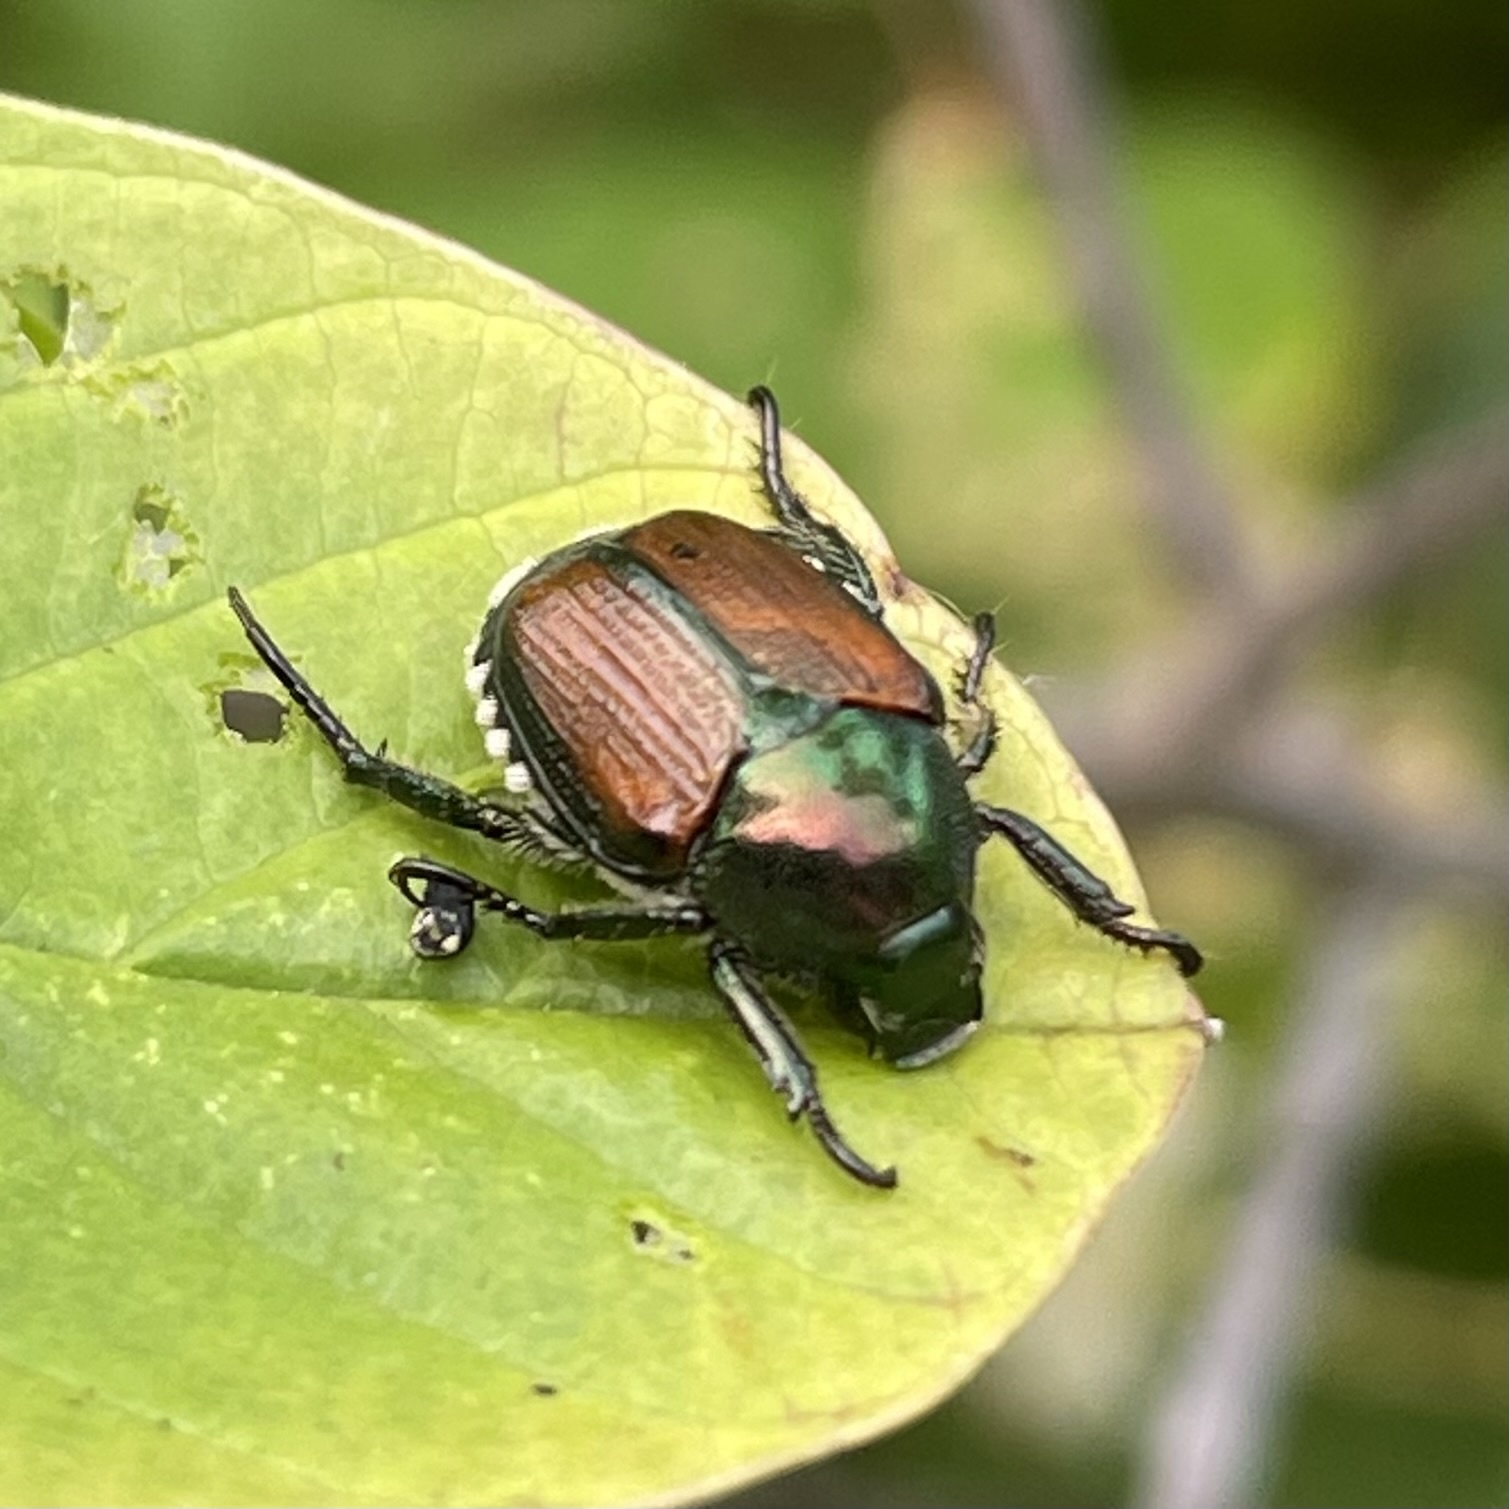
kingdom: Animalia
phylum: Arthropoda
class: Insecta
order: Coleoptera
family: Scarabaeidae
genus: Popillia
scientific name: Popillia japonica
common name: Japanese beetle
